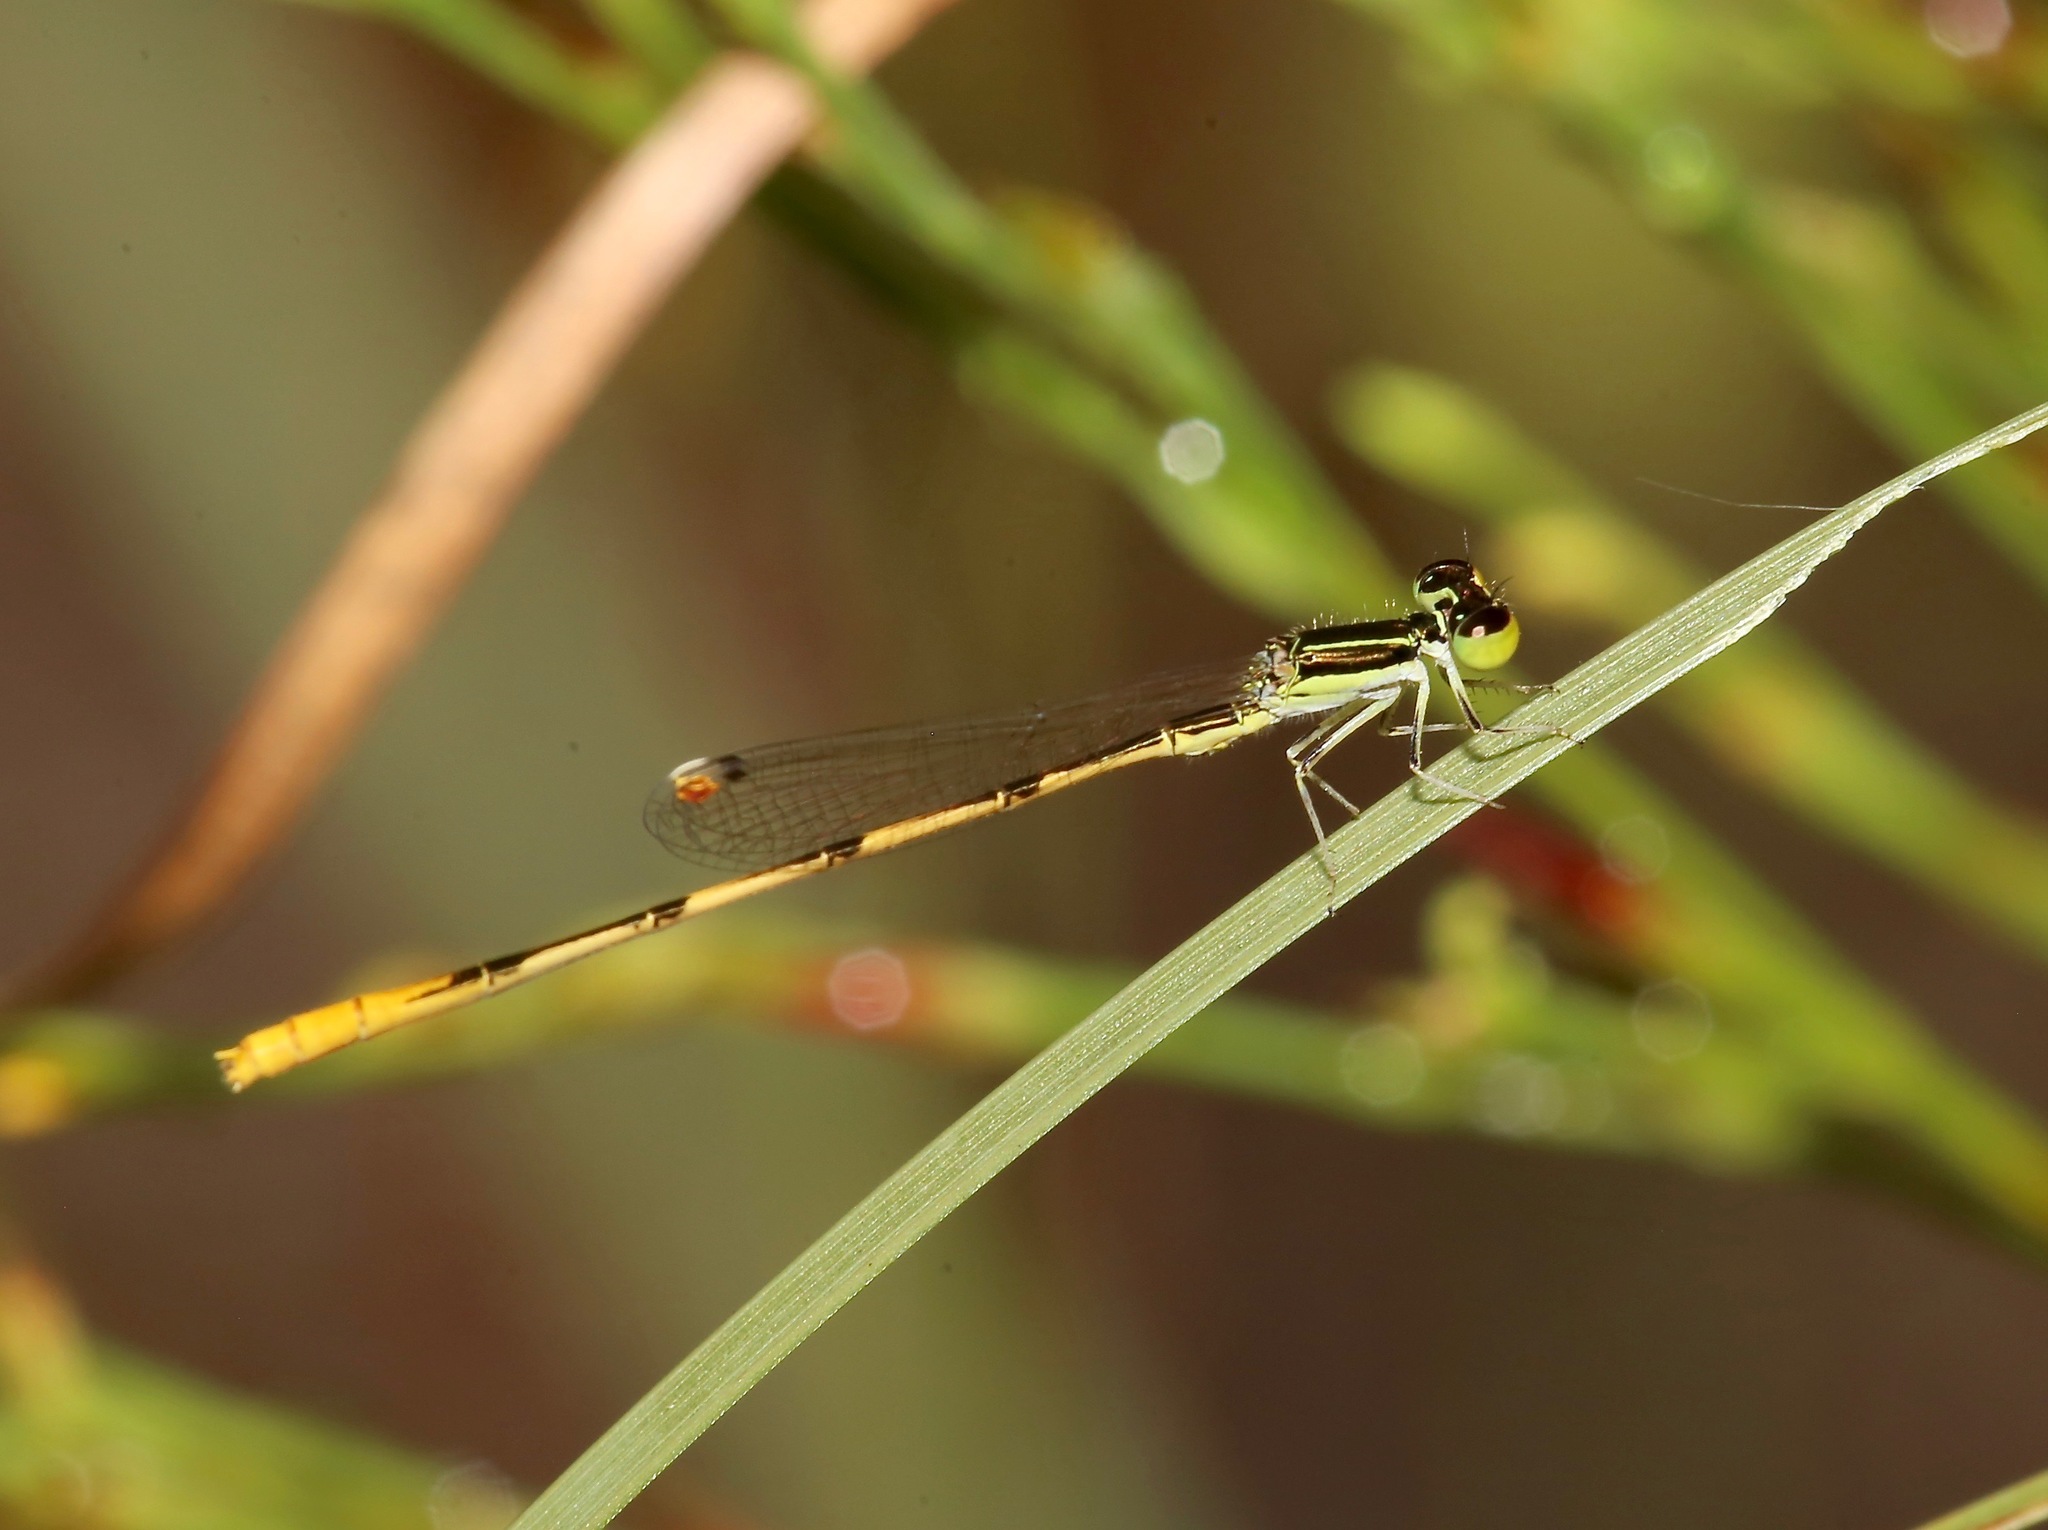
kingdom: Animalia
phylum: Arthropoda
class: Insecta
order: Odonata
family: Coenagrionidae
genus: Ischnura
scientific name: Ischnura hastata
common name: Citrine forktail
